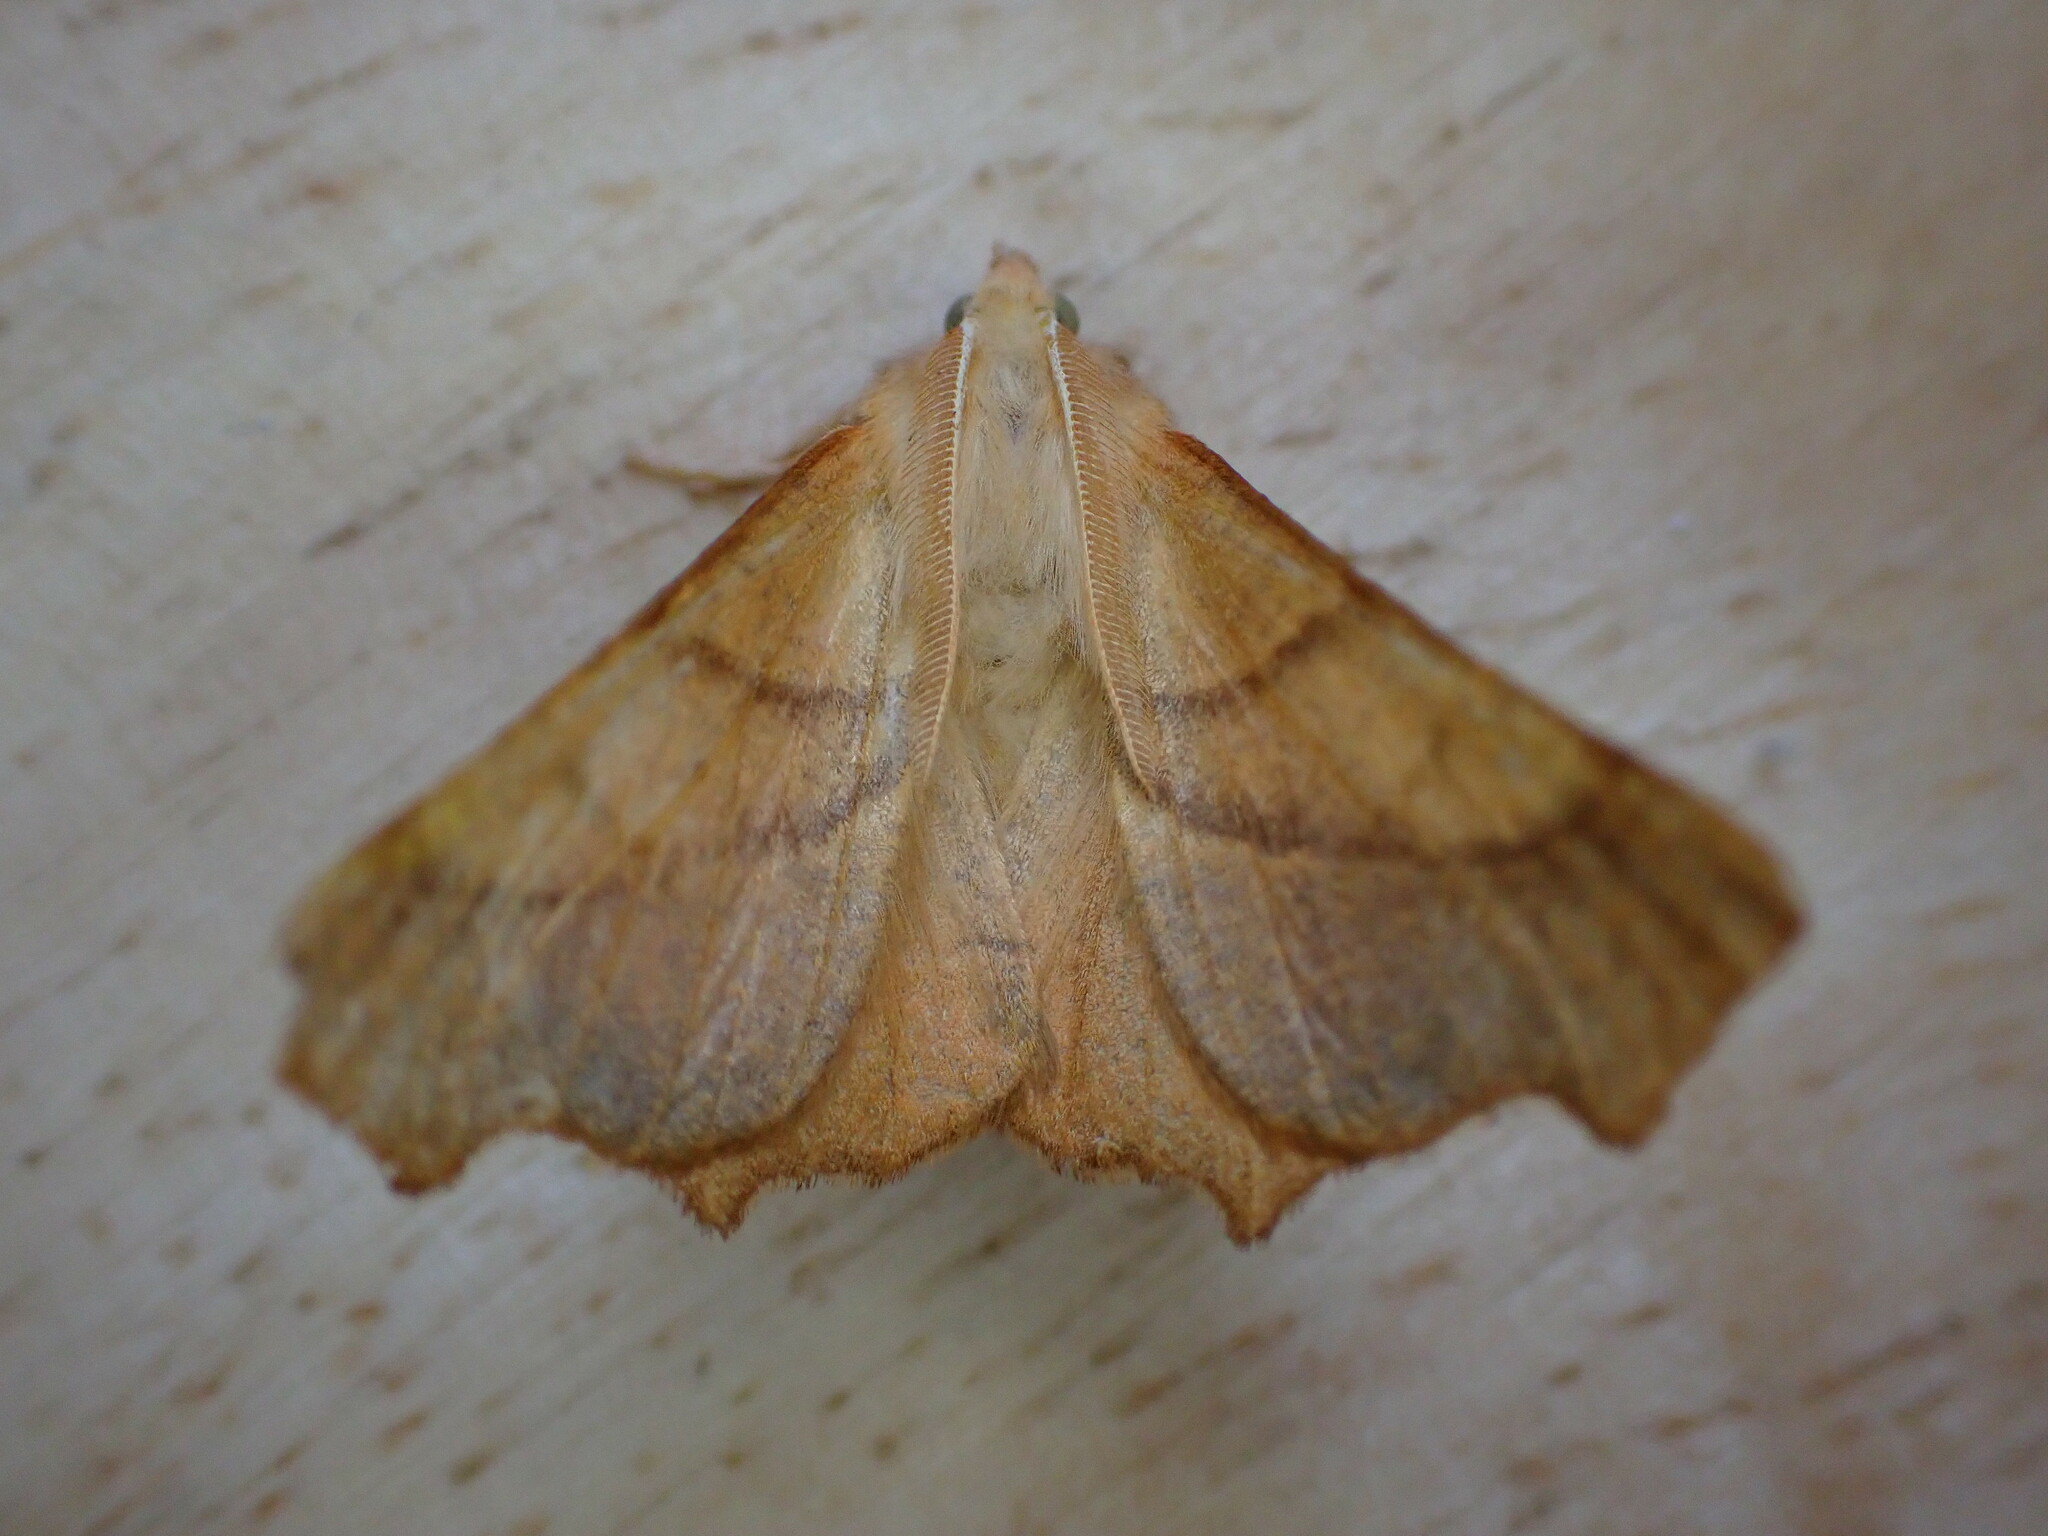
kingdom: Animalia
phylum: Arthropoda
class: Insecta
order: Lepidoptera
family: Geometridae
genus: Ennomos
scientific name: Ennomos fuscantaria
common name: Dusky thorn
